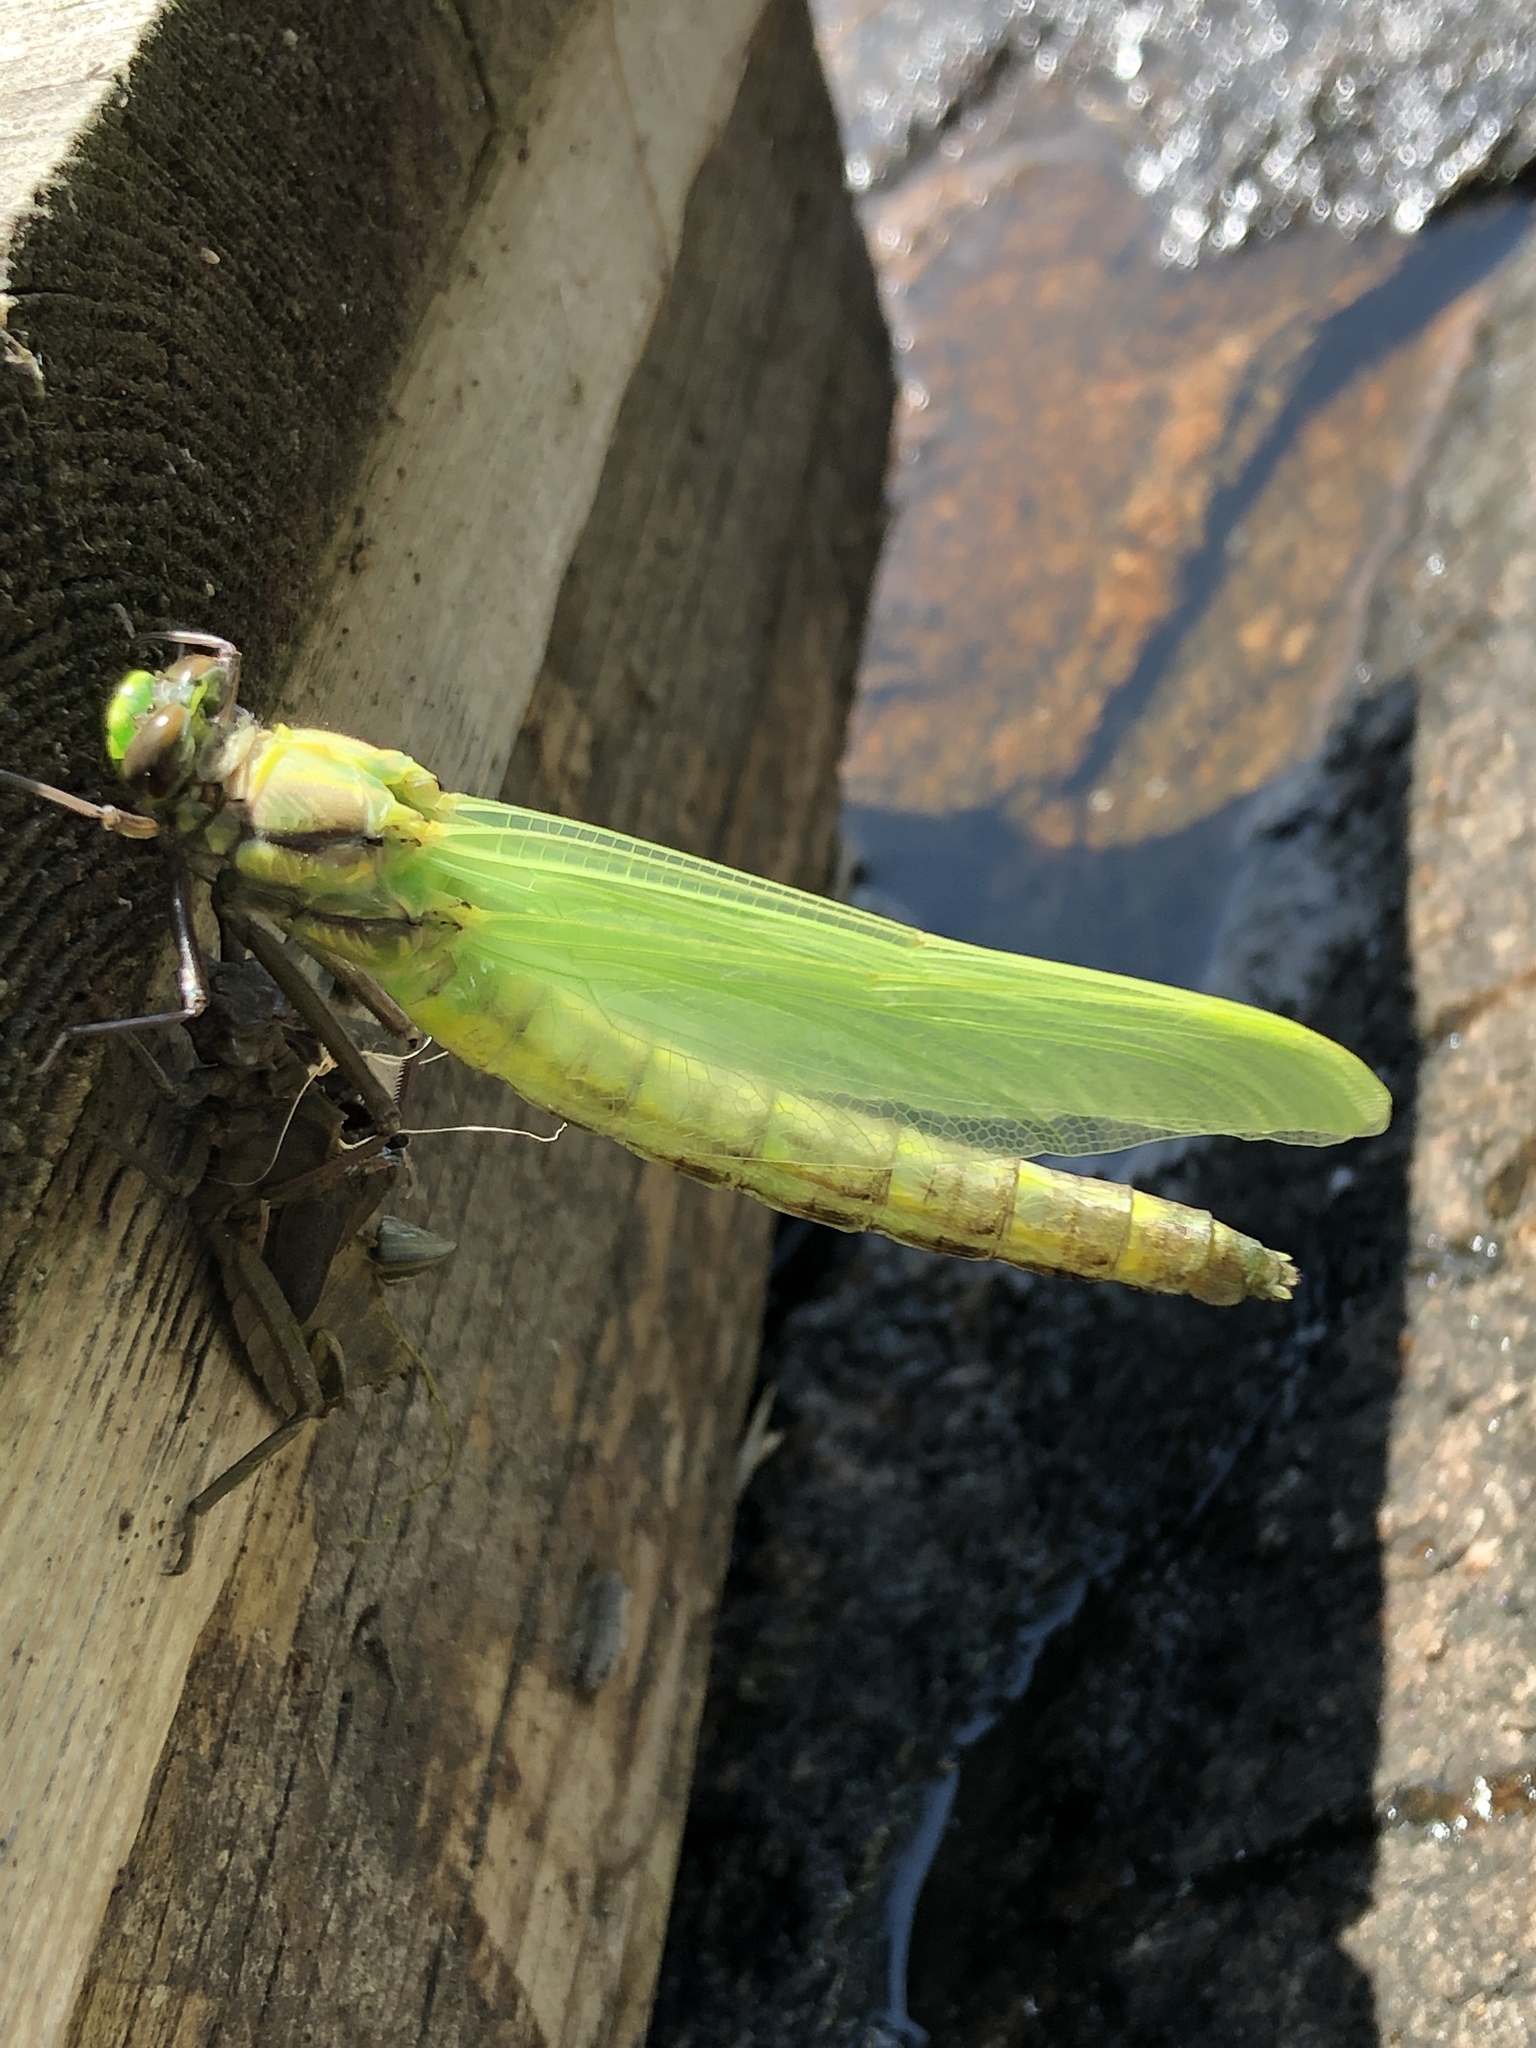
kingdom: Animalia
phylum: Arthropoda
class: Insecta
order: Odonata
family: Gomphidae
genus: Hagenius
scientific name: Hagenius brevistylus
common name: Dragonhunter
